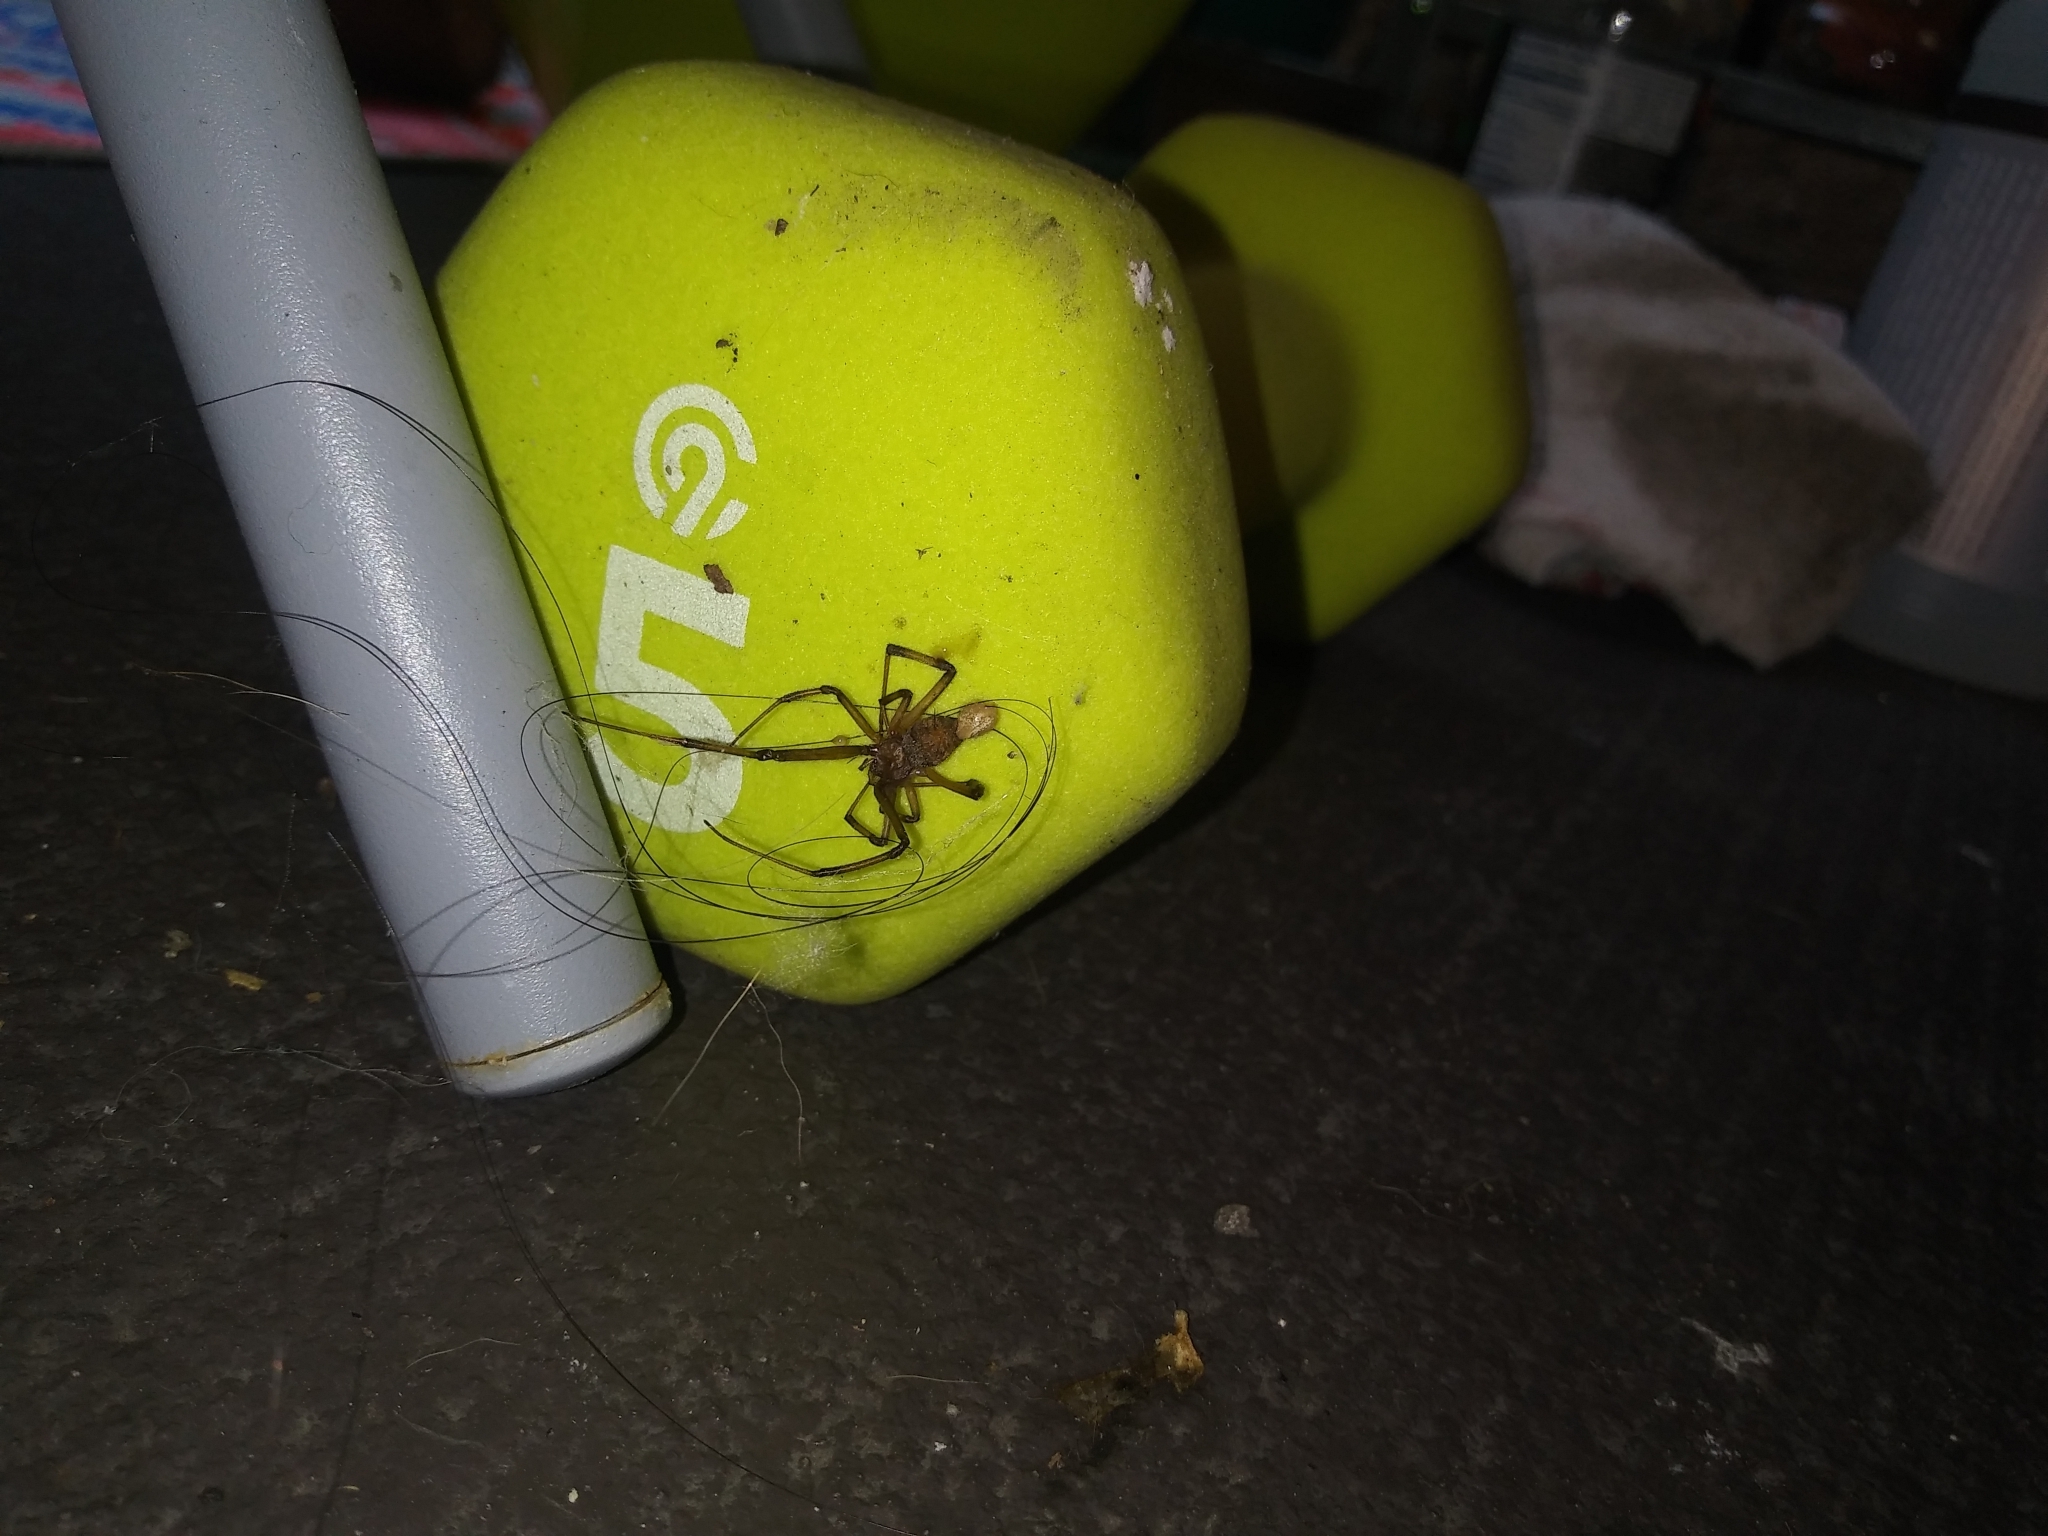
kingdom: Animalia
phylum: Arthropoda
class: Arachnida
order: Araneae
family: Theridiidae
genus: Latrodectus
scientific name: Latrodectus geometricus
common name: Brown widow spider
